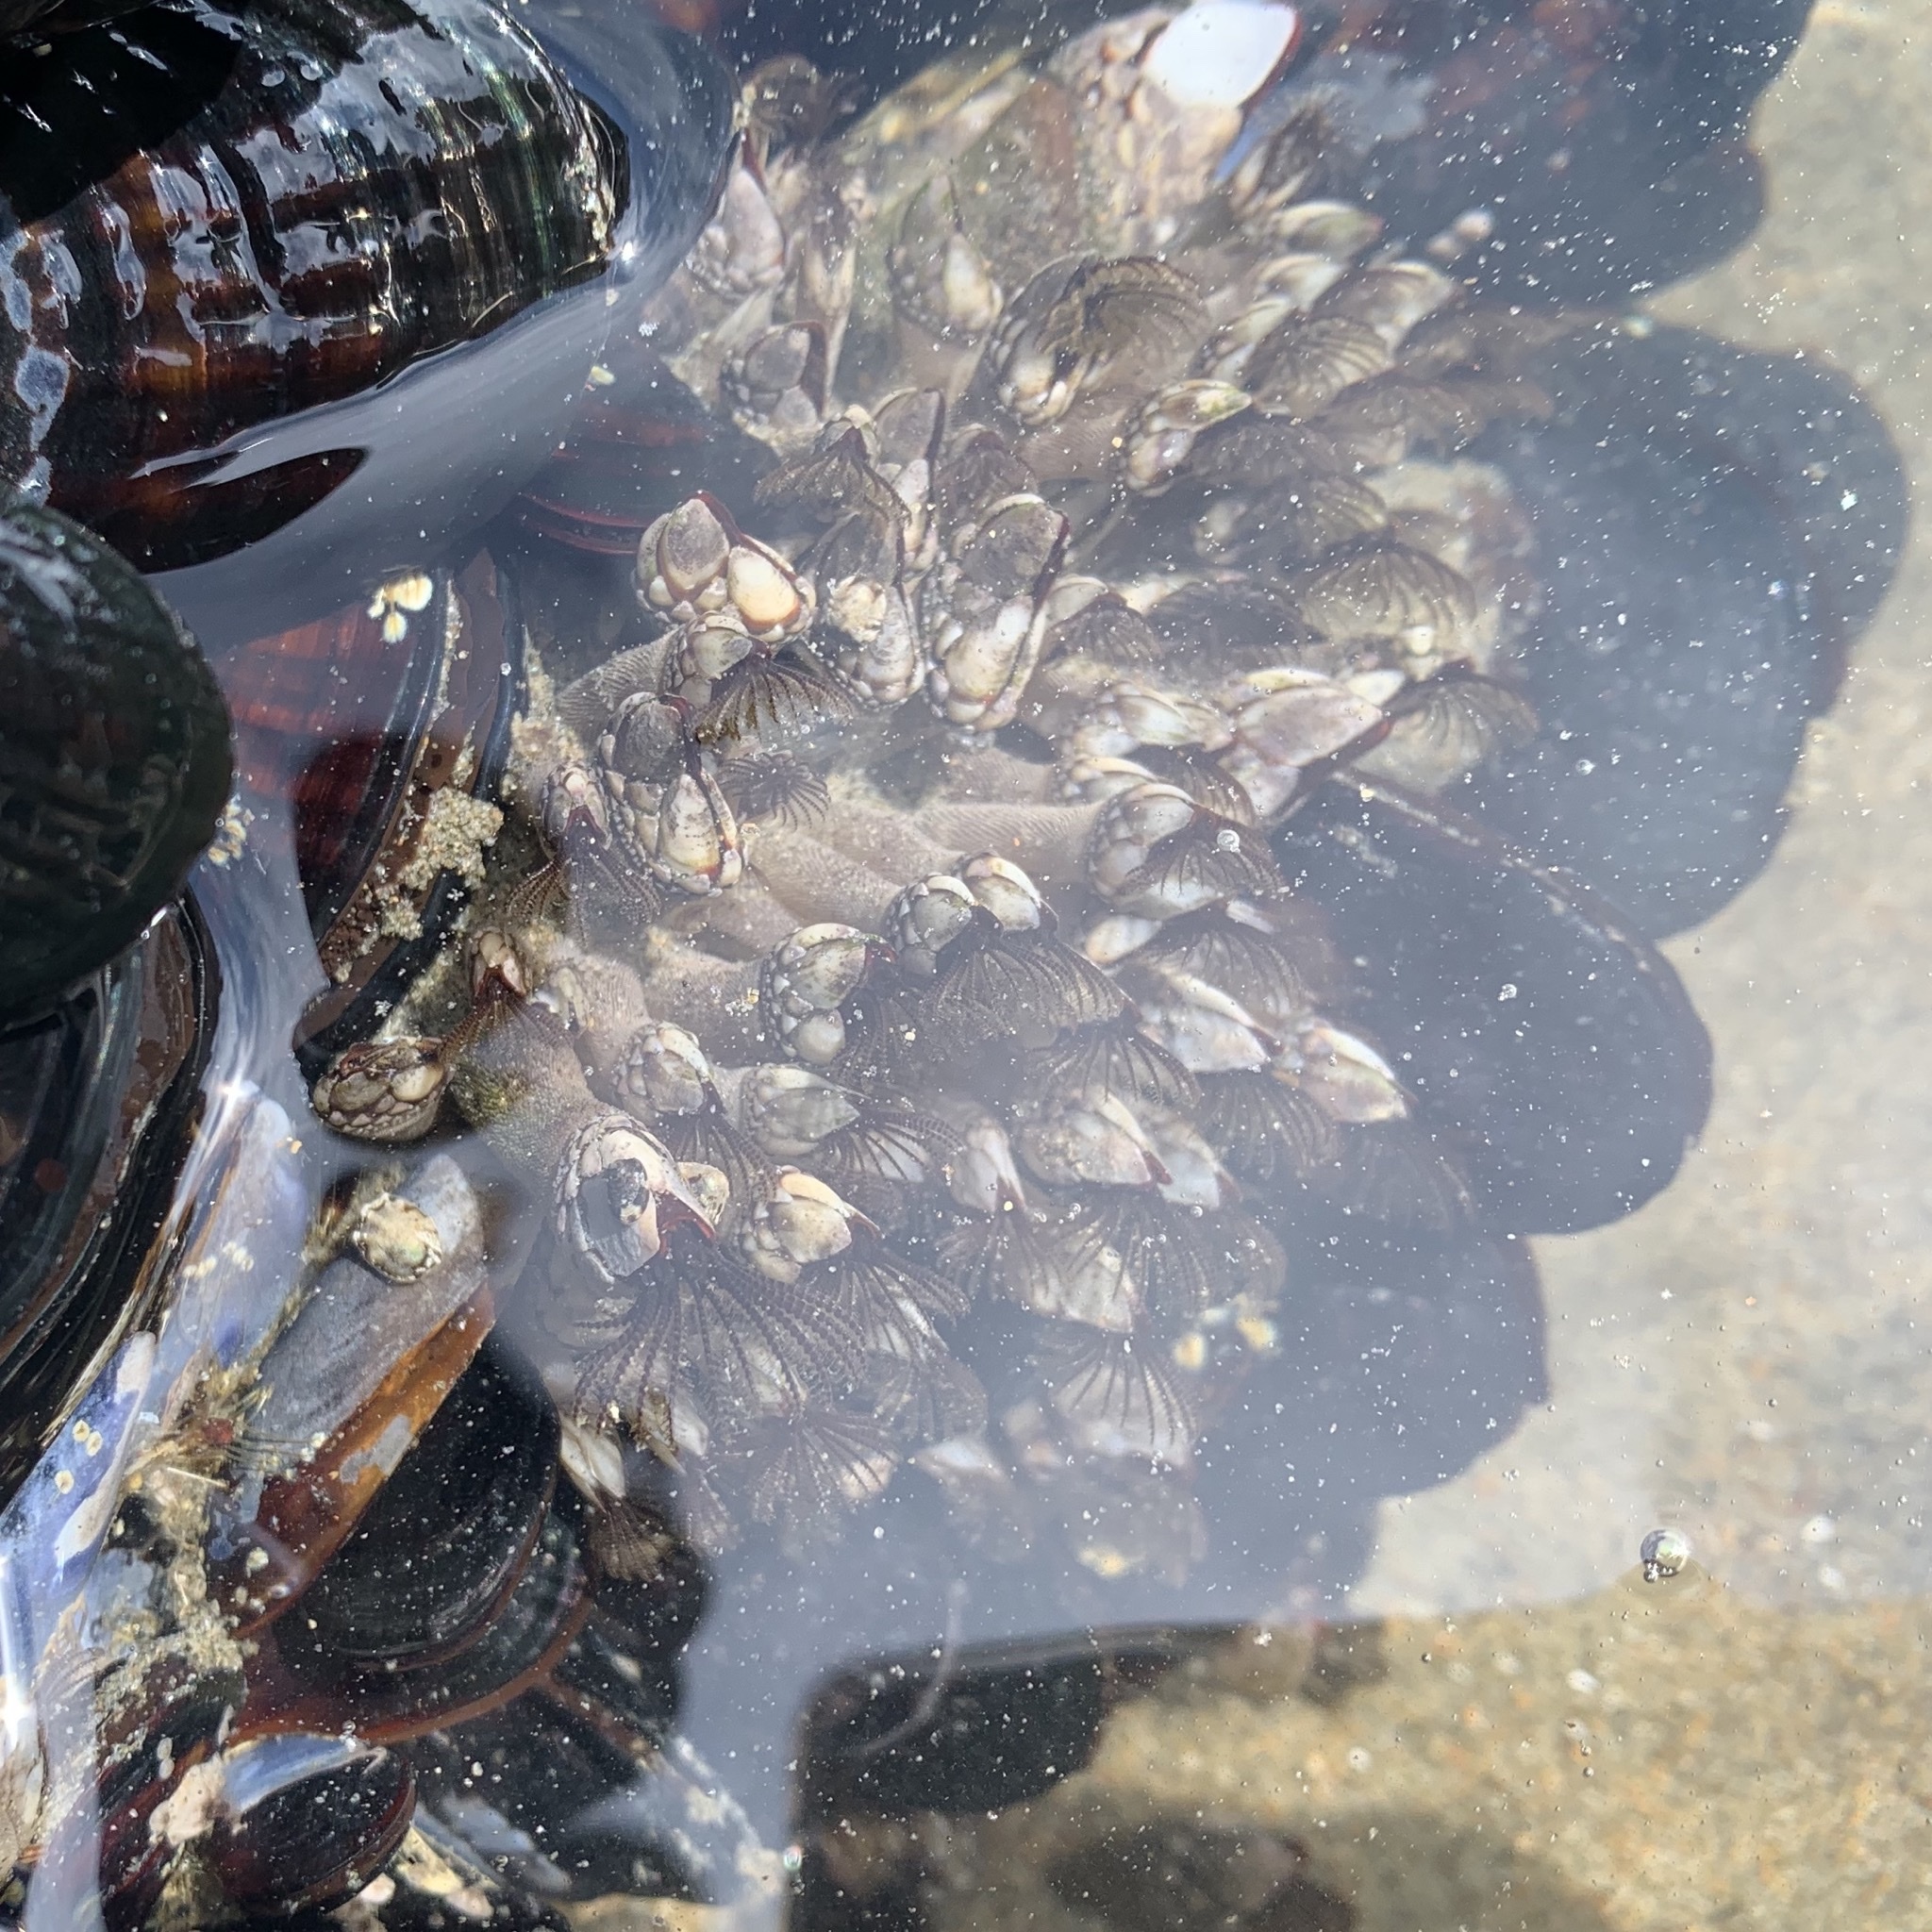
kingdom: Animalia
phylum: Arthropoda
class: Maxillopoda
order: Pedunculata
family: Pollicipedidae
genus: Pollicipes
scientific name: Pollicipes polymerus
